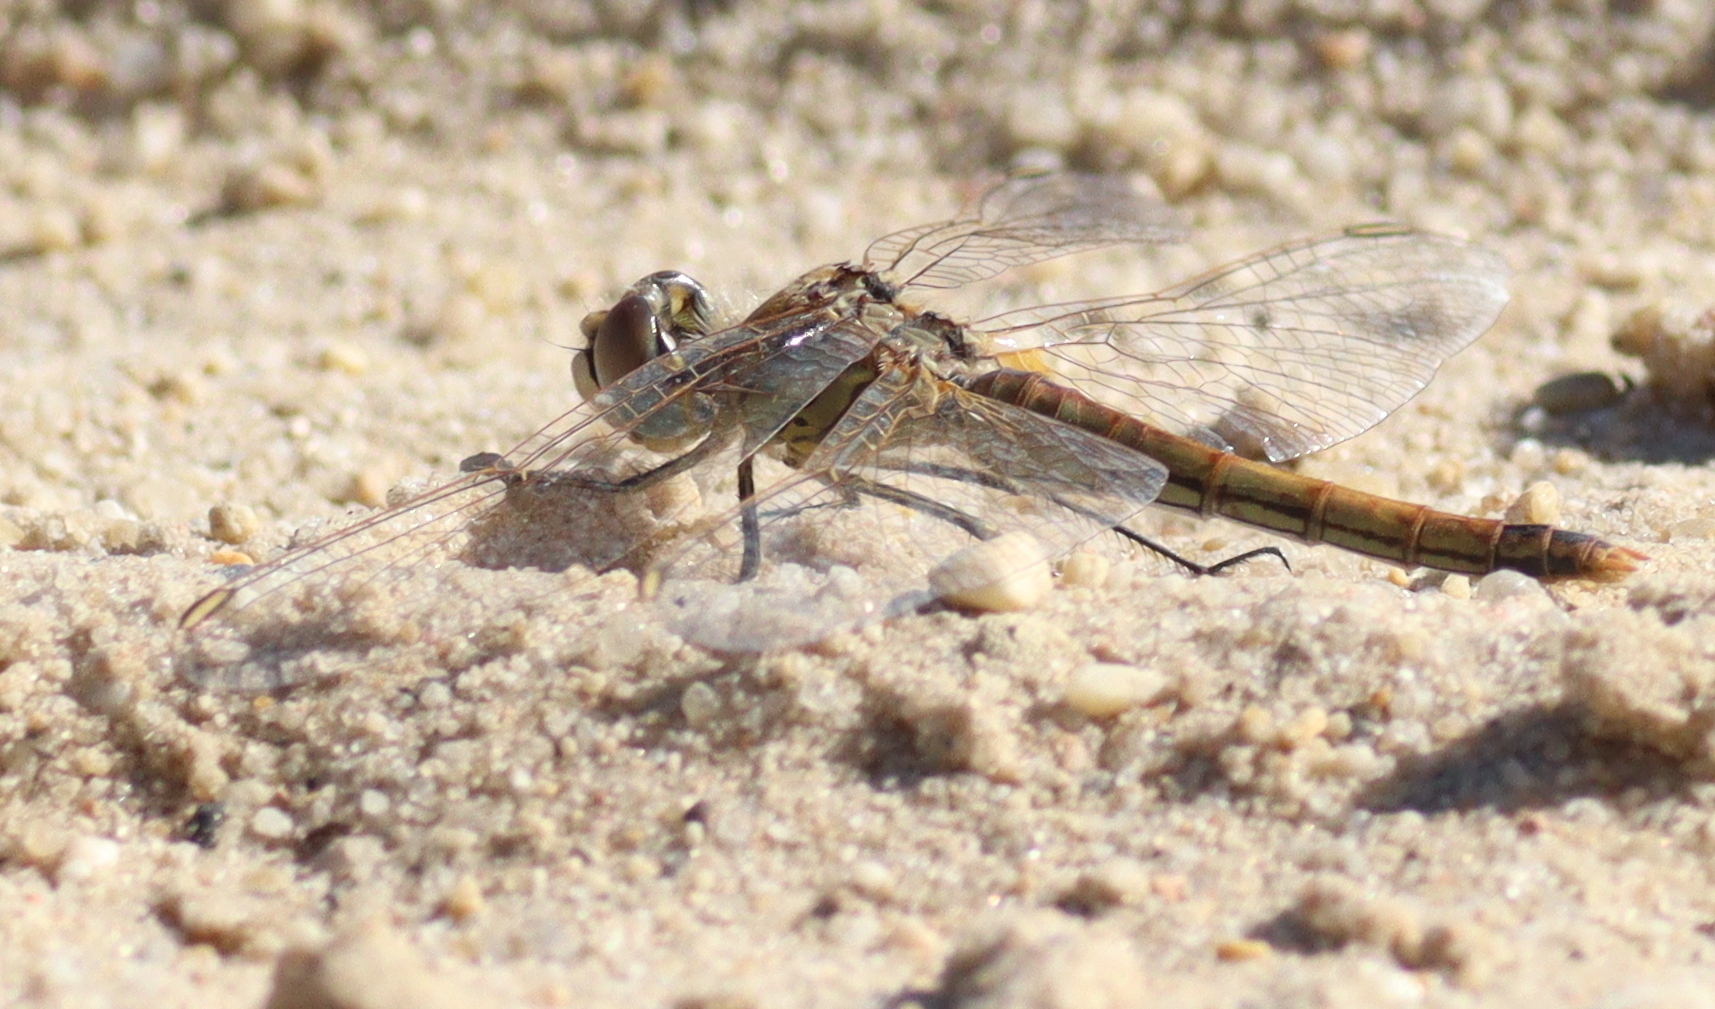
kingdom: Animalia
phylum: Arthropoda
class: Insecta
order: Odonata
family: Libellulidae
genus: Sympetrum
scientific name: Sympetrum fonscolombii
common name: Red-veined darter
